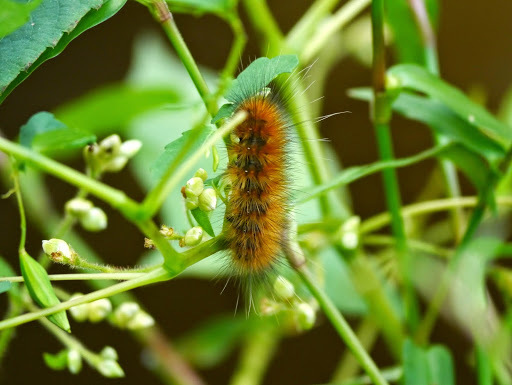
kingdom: Animalia
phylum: Arthropoda
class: Insecta
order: Lepidoptera
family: Erebidae
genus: Spilosoma
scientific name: Spilosoma virginica
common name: Virginia tiger moth
